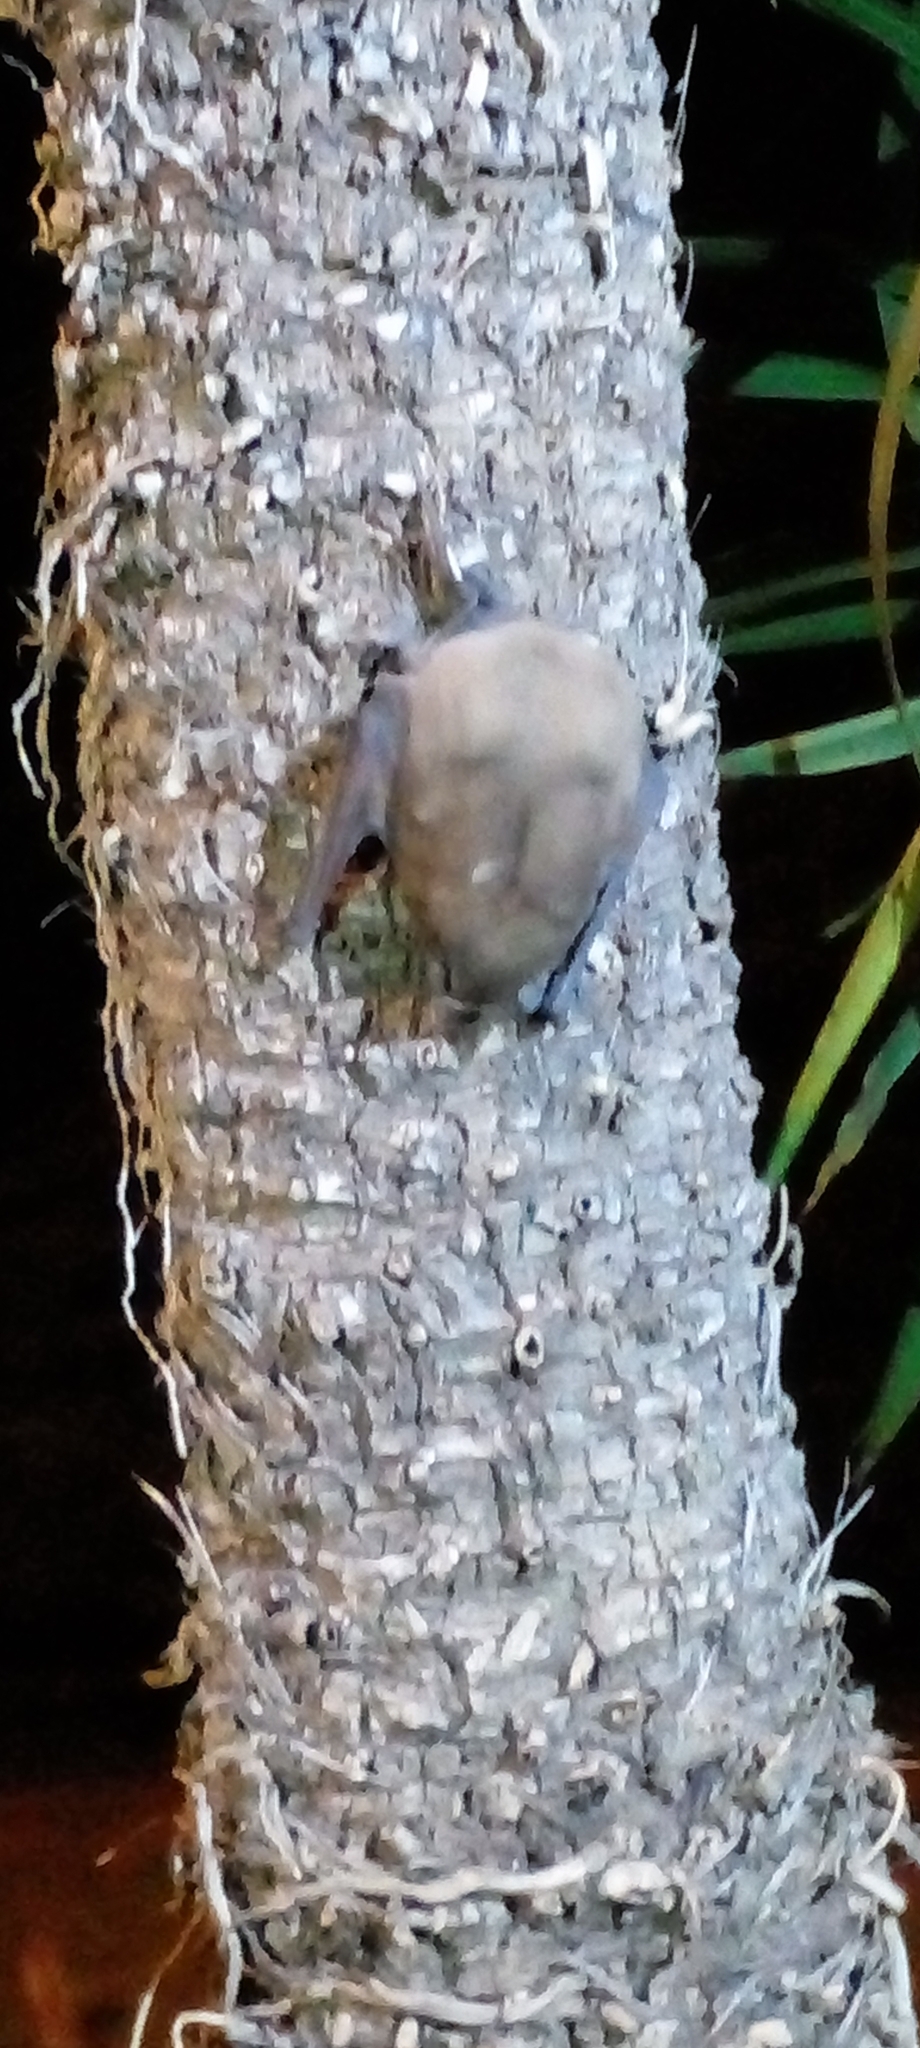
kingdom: Animalia
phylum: Chordata
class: Mammalia
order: Chiroptera
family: Molossidae
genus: Molossus
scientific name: Molossus molossus
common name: Pallas's mastiff bat
